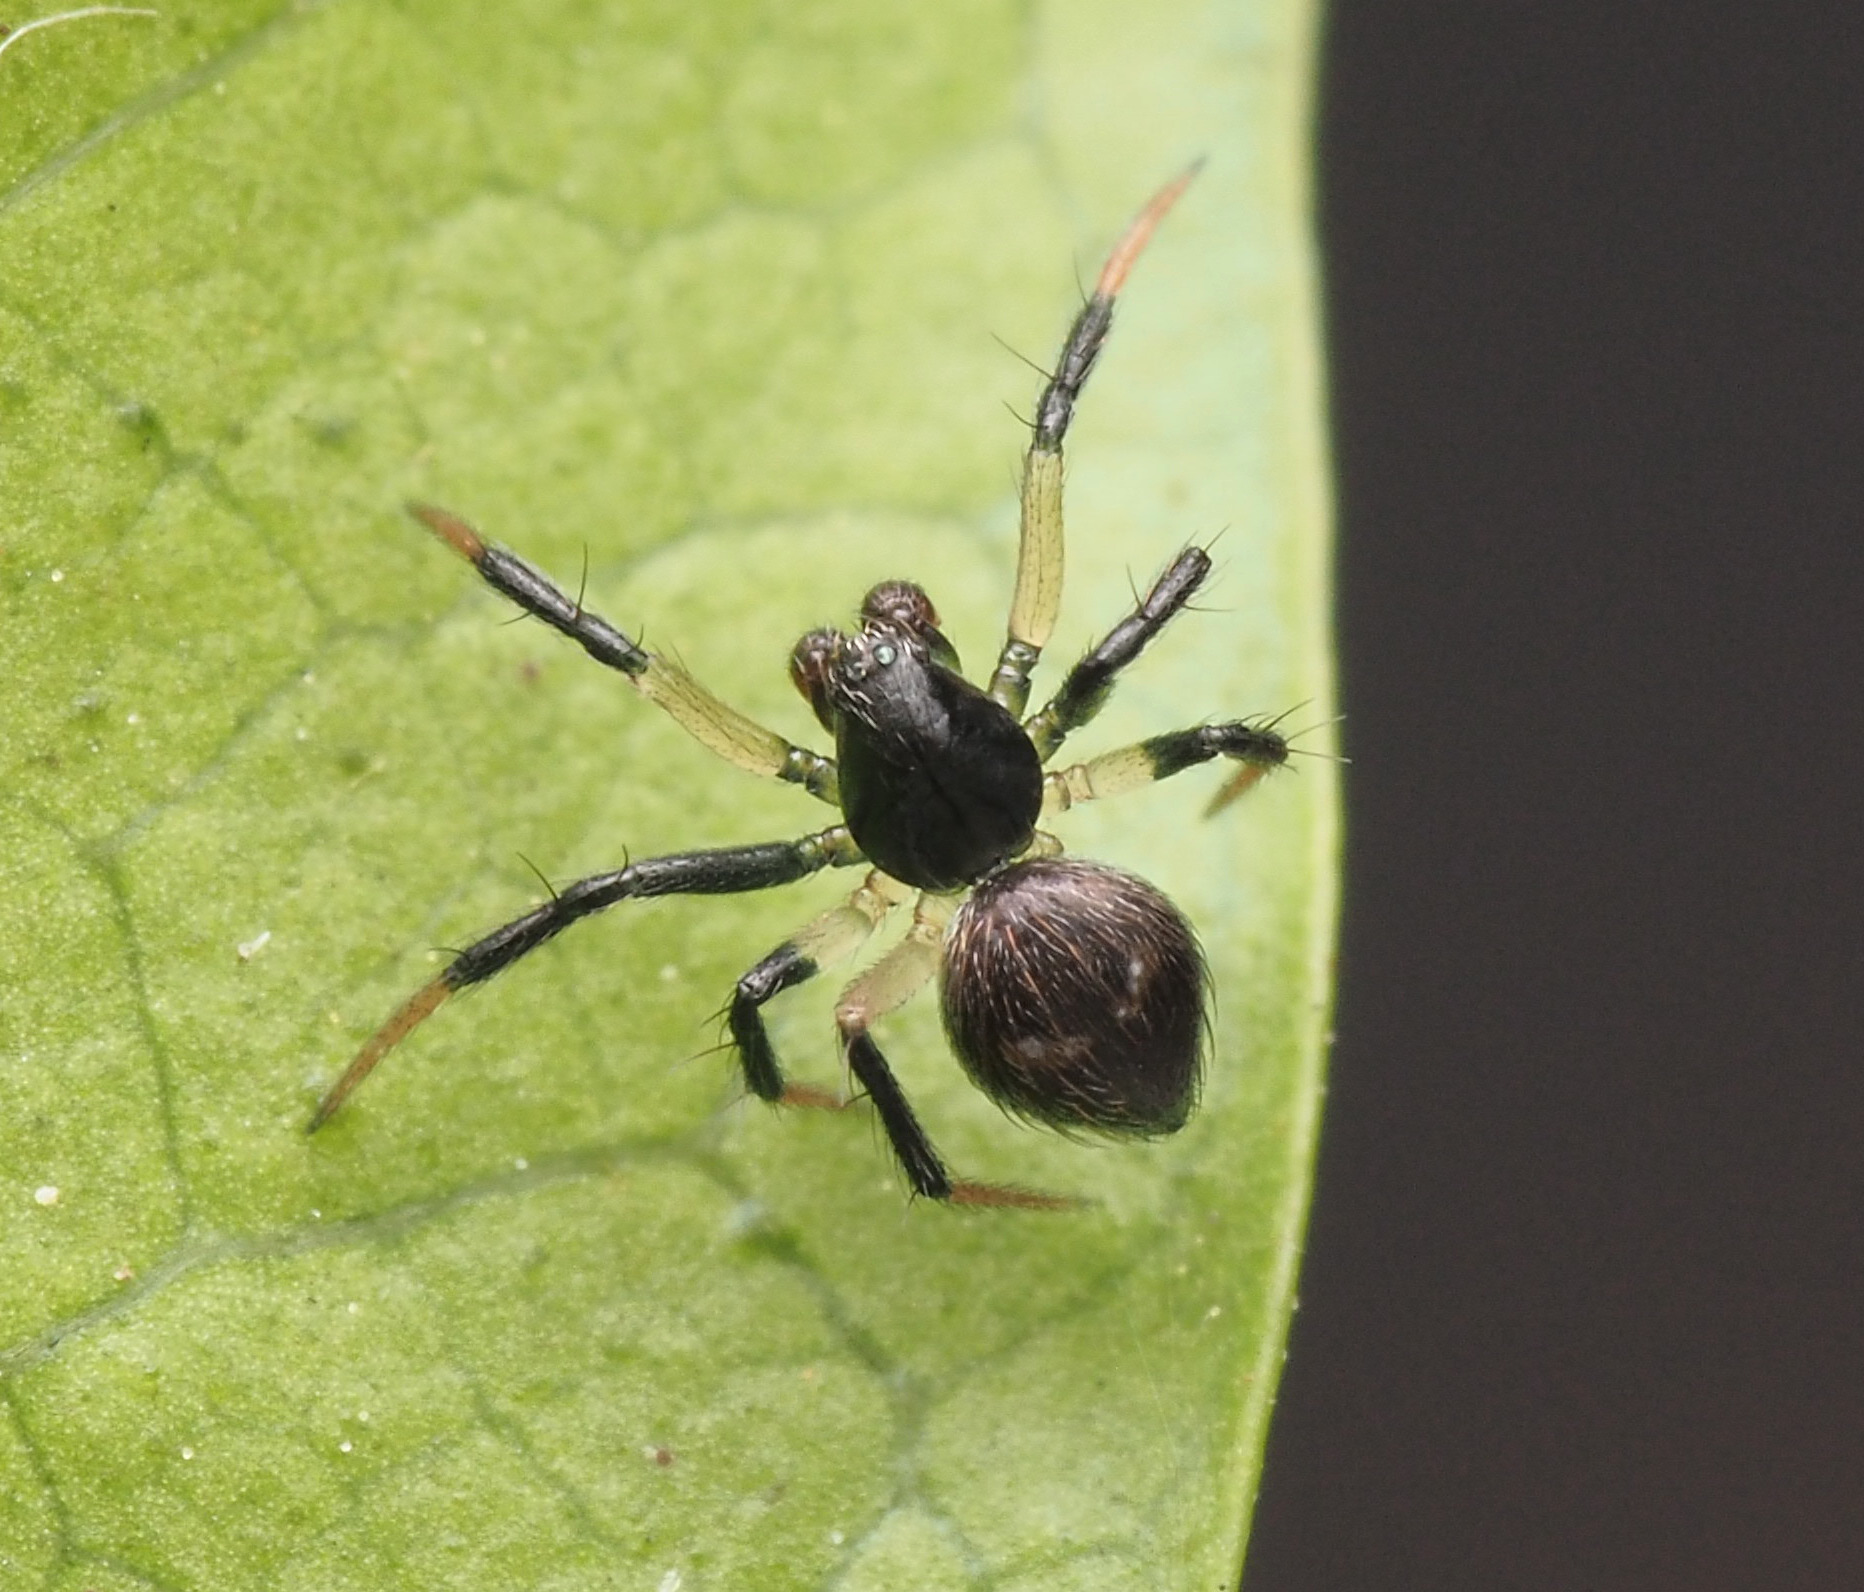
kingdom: Animalia
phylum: Arthropoda
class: Arachnida
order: Araneae
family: Theridiidae
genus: Argyrodes
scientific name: Argyrodes binotatus
